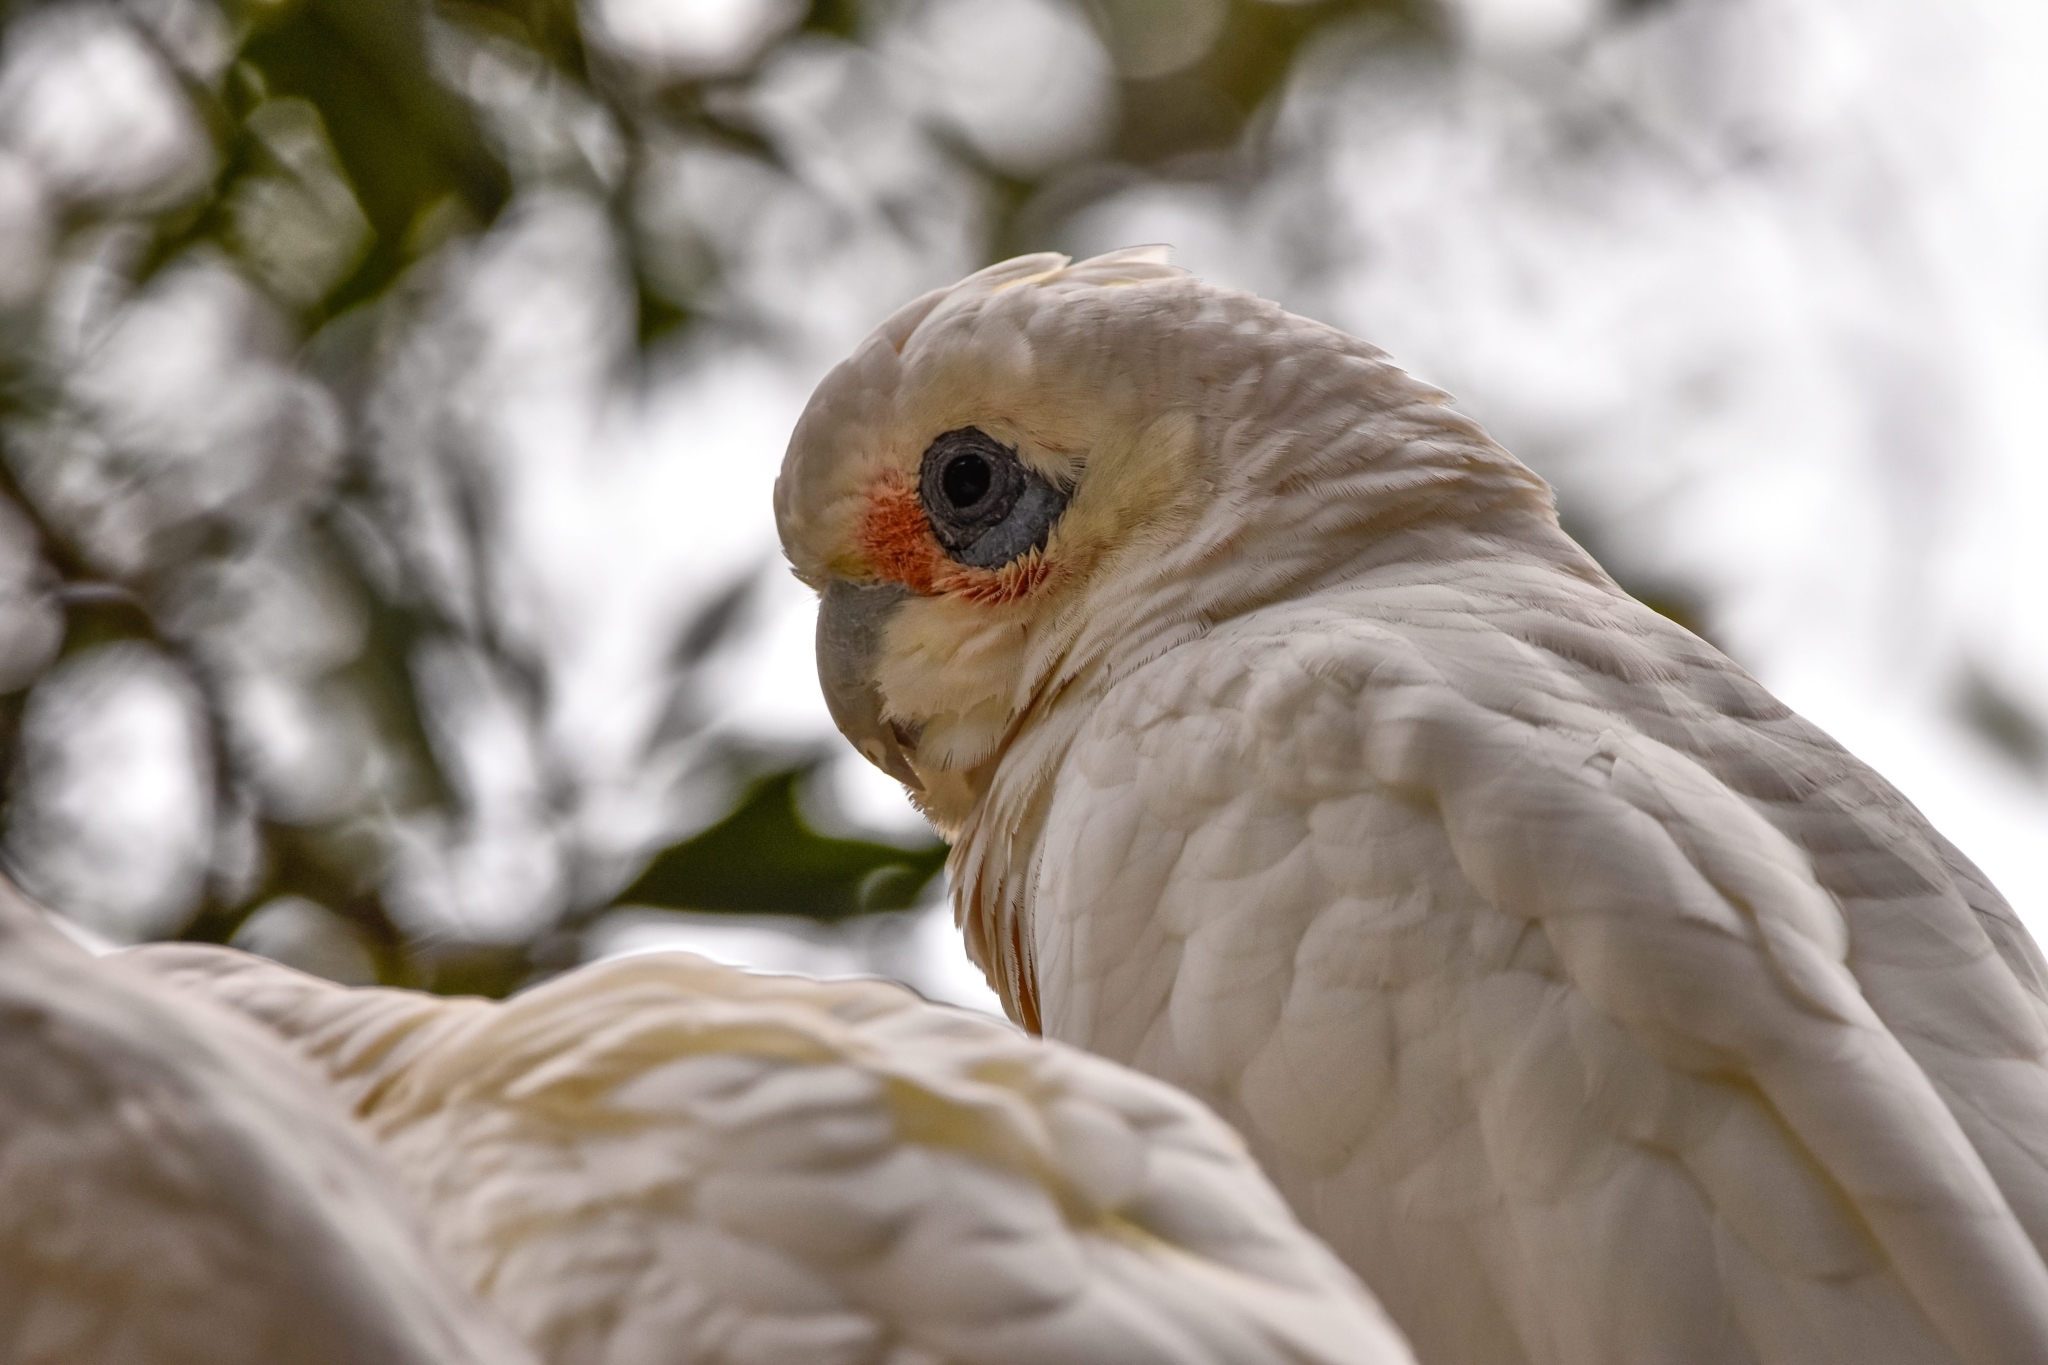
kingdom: Animalia
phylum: Chordata
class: Aves
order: Psittaciformes
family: Psittacidae
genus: Cacatua
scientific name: Cacatua tenuirostris
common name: Long-billed corella
